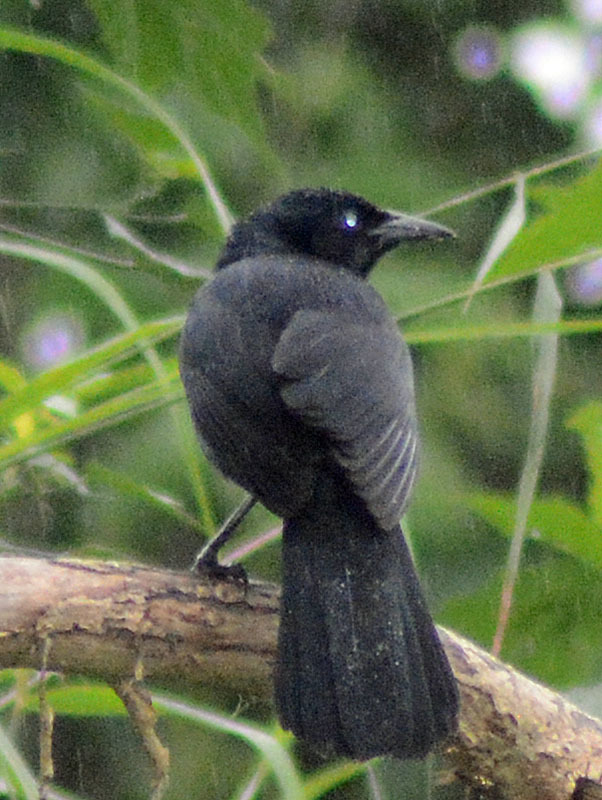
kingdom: Animalia
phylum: Chordata
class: Aves
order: Passeriformes
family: Icteridae
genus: Dives
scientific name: Dives dives
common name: Melodious blackbird
